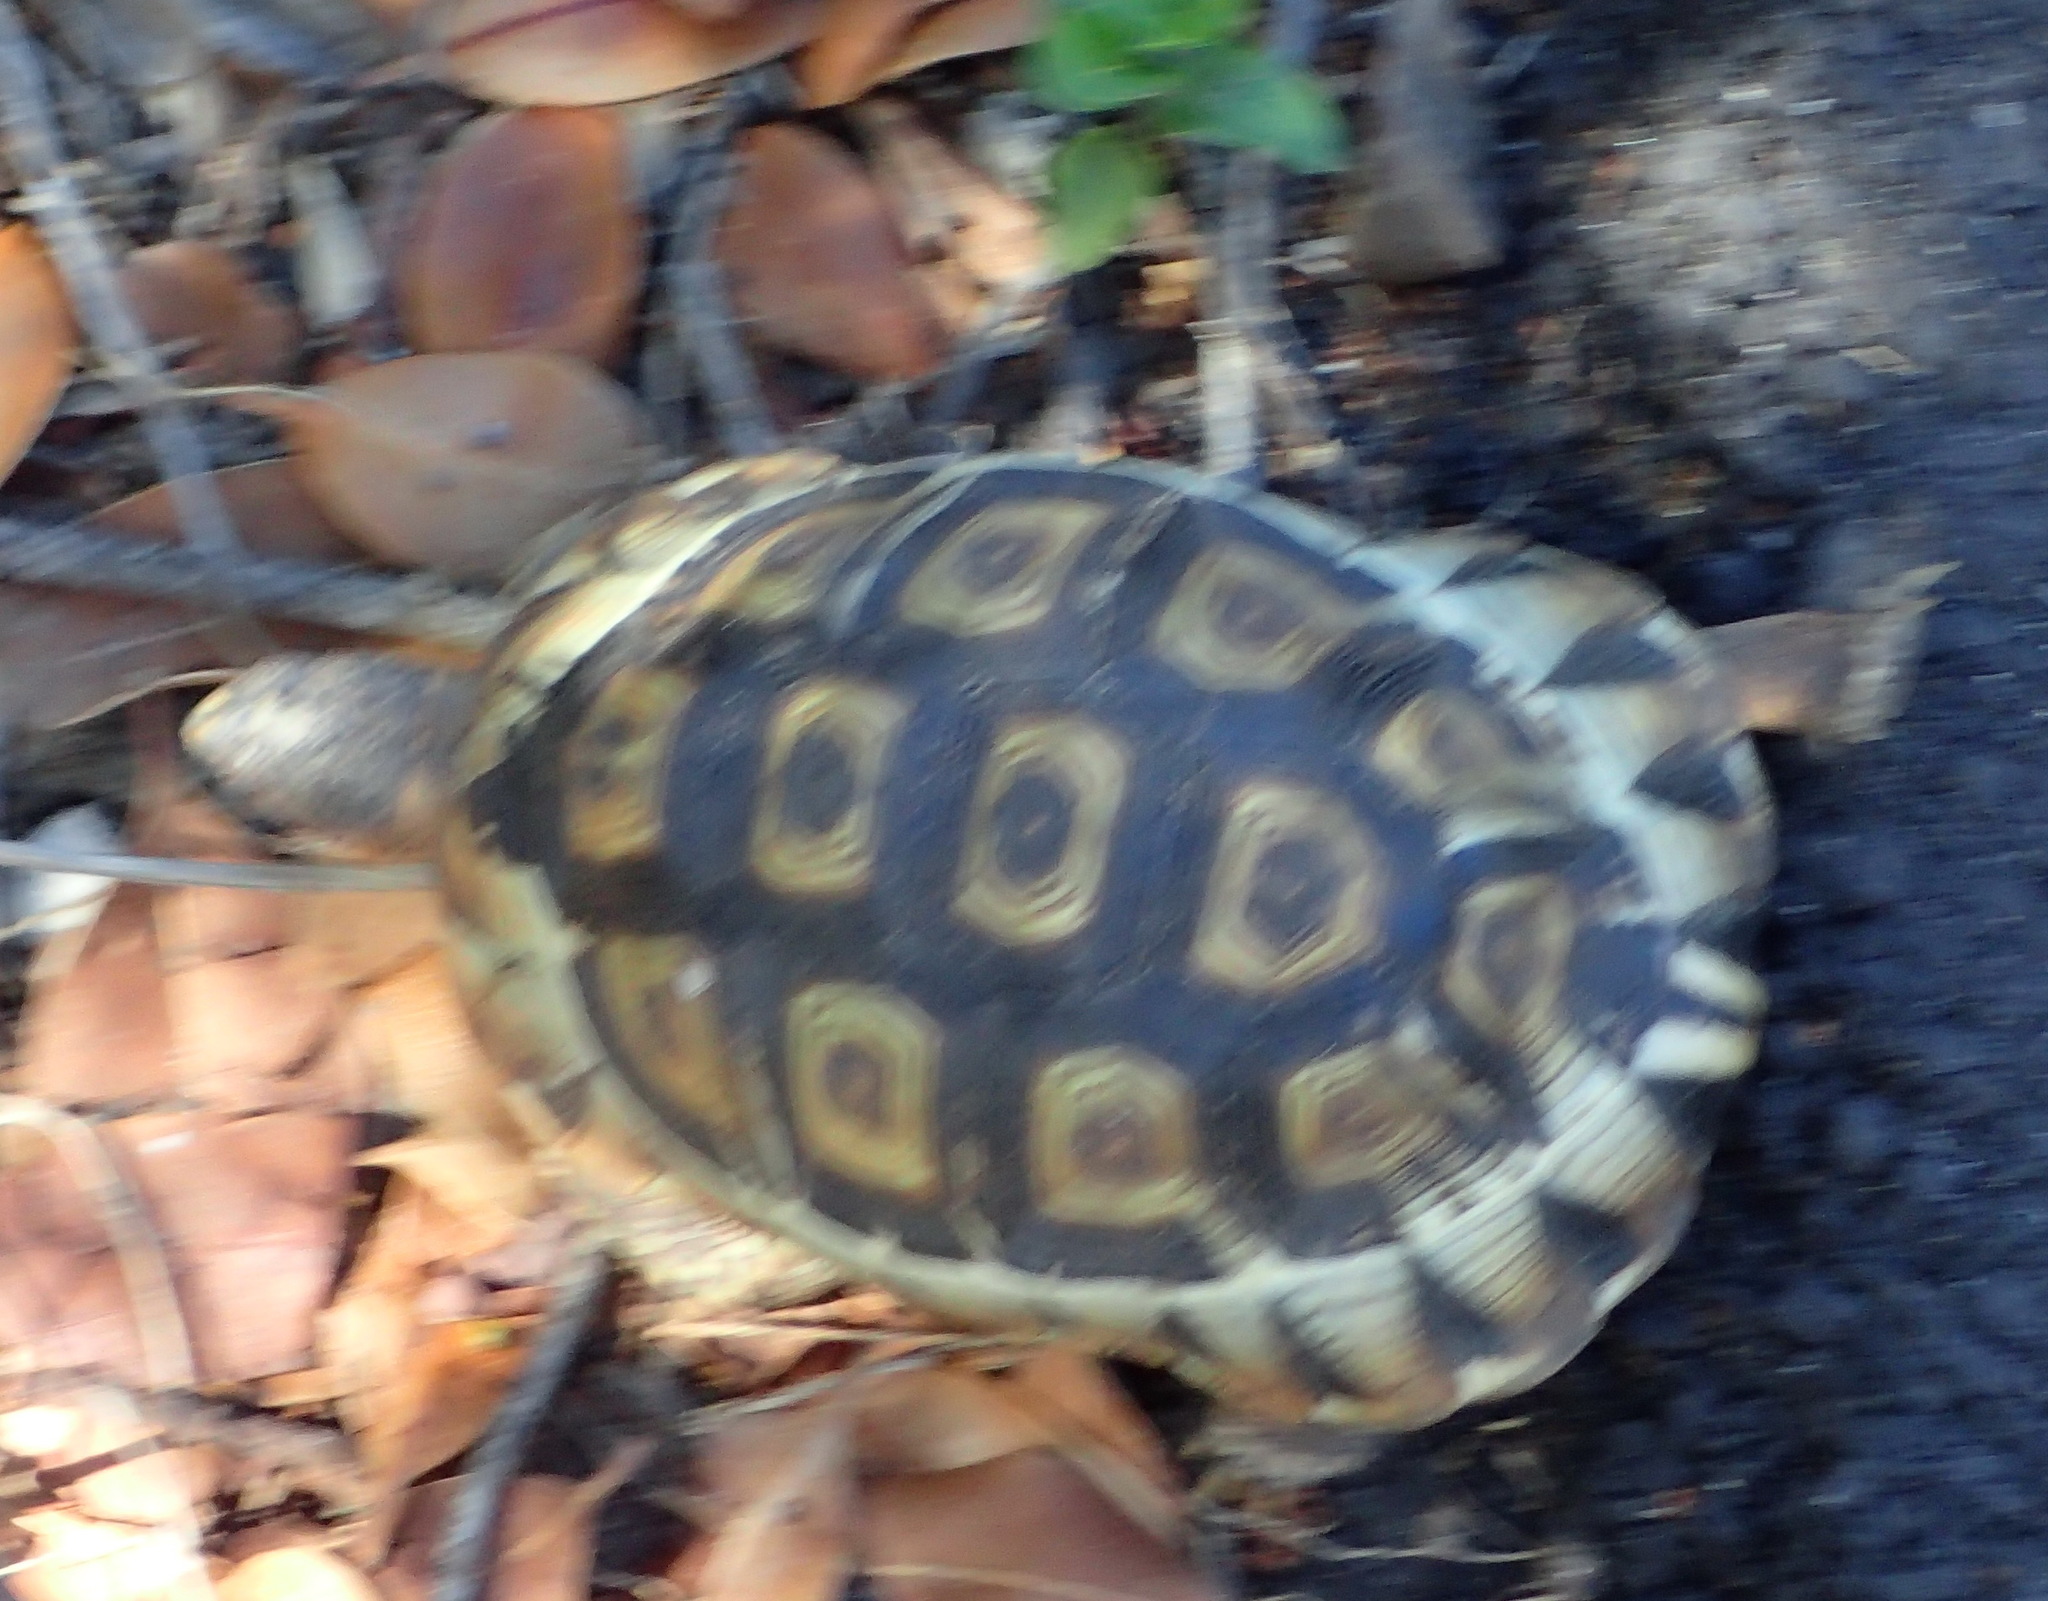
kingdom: Animalia
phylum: Chordata
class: Testudines
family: Testudinidae
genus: Chersina
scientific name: Chersina angulata
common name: South african bowsprit tortoise
